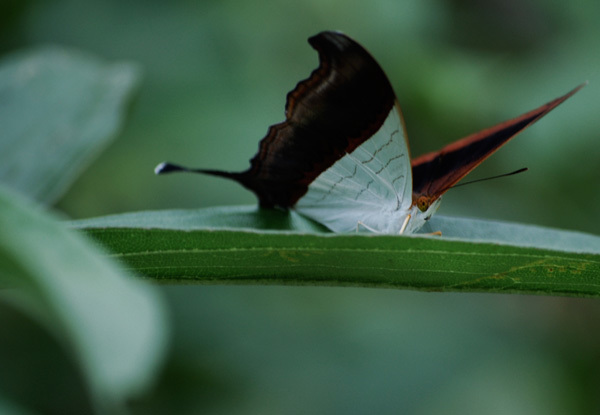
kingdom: Animalia
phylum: Arthropoda
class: Insecta
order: Lepidoptera
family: Nymphalidae
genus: Marpesia
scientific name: Marpesia zerynthia
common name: Waiter daggerwing
